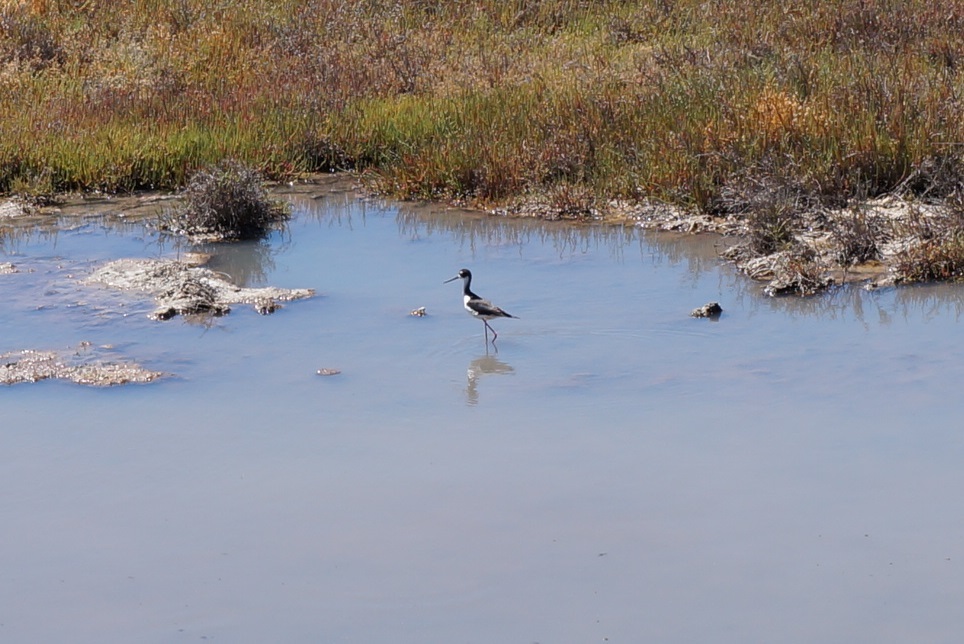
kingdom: Animalia
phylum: Chordata
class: Aves
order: Charadriiformes
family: Recurvirostridae
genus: Himantopus
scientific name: Himantopus mexicanus
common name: Black-necked stilt
